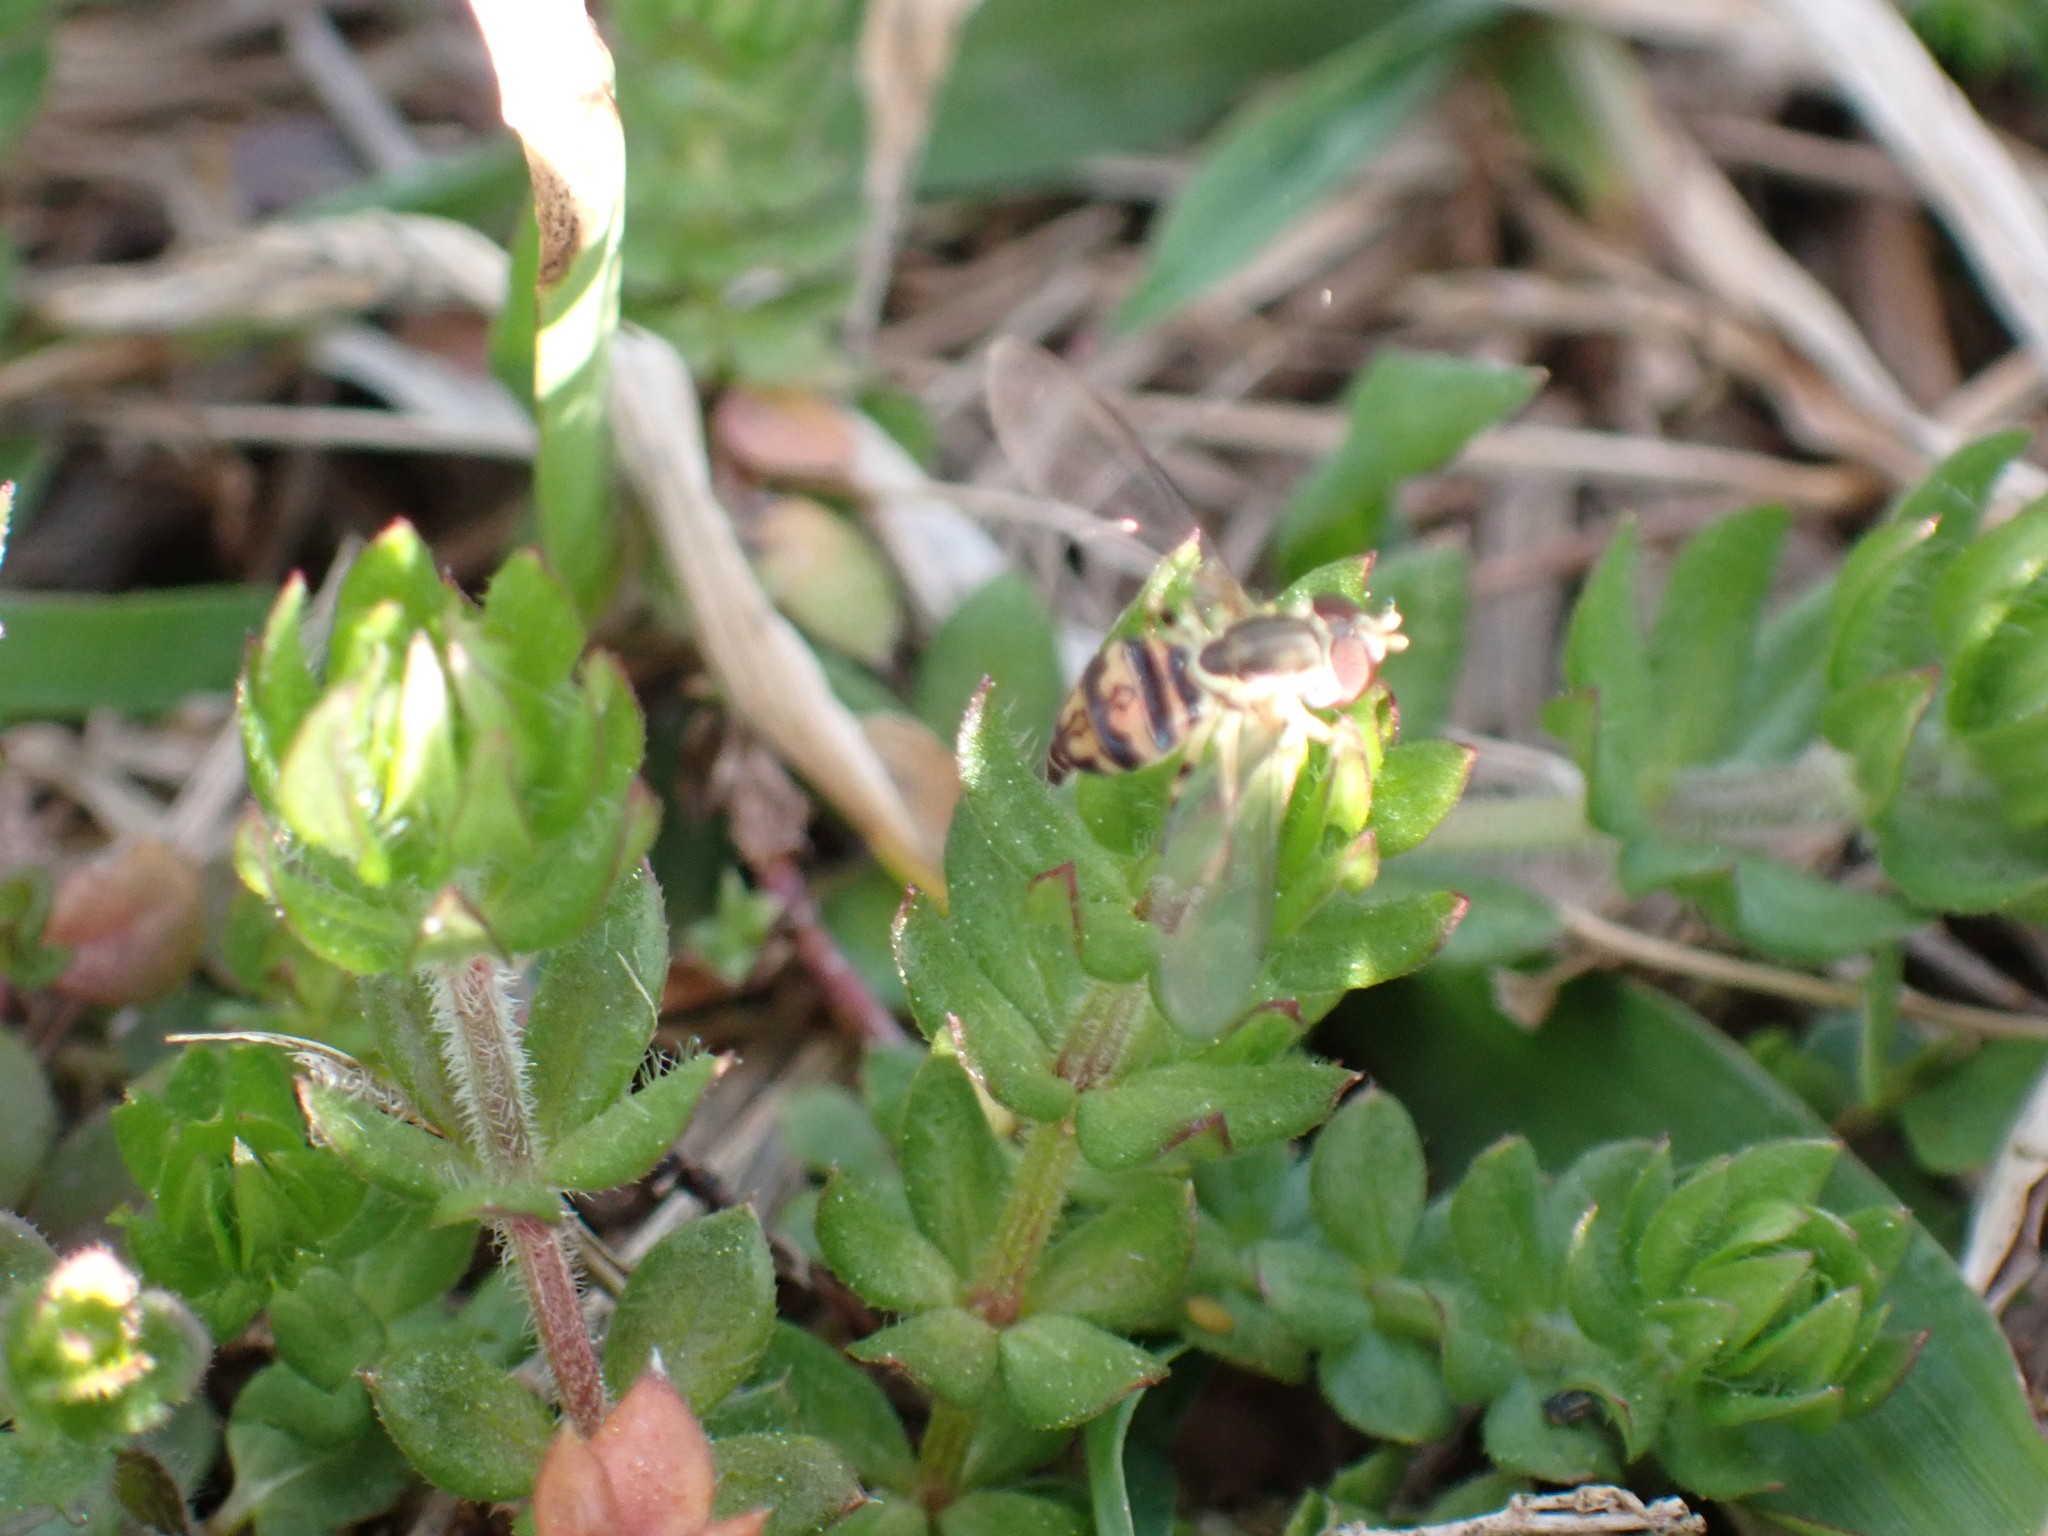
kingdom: Animalia
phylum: Arthropoda
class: Insecta
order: Diptera
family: Syrphidae
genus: Toxomerus
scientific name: Toxomerus geminatus
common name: Eastern calligrapher
